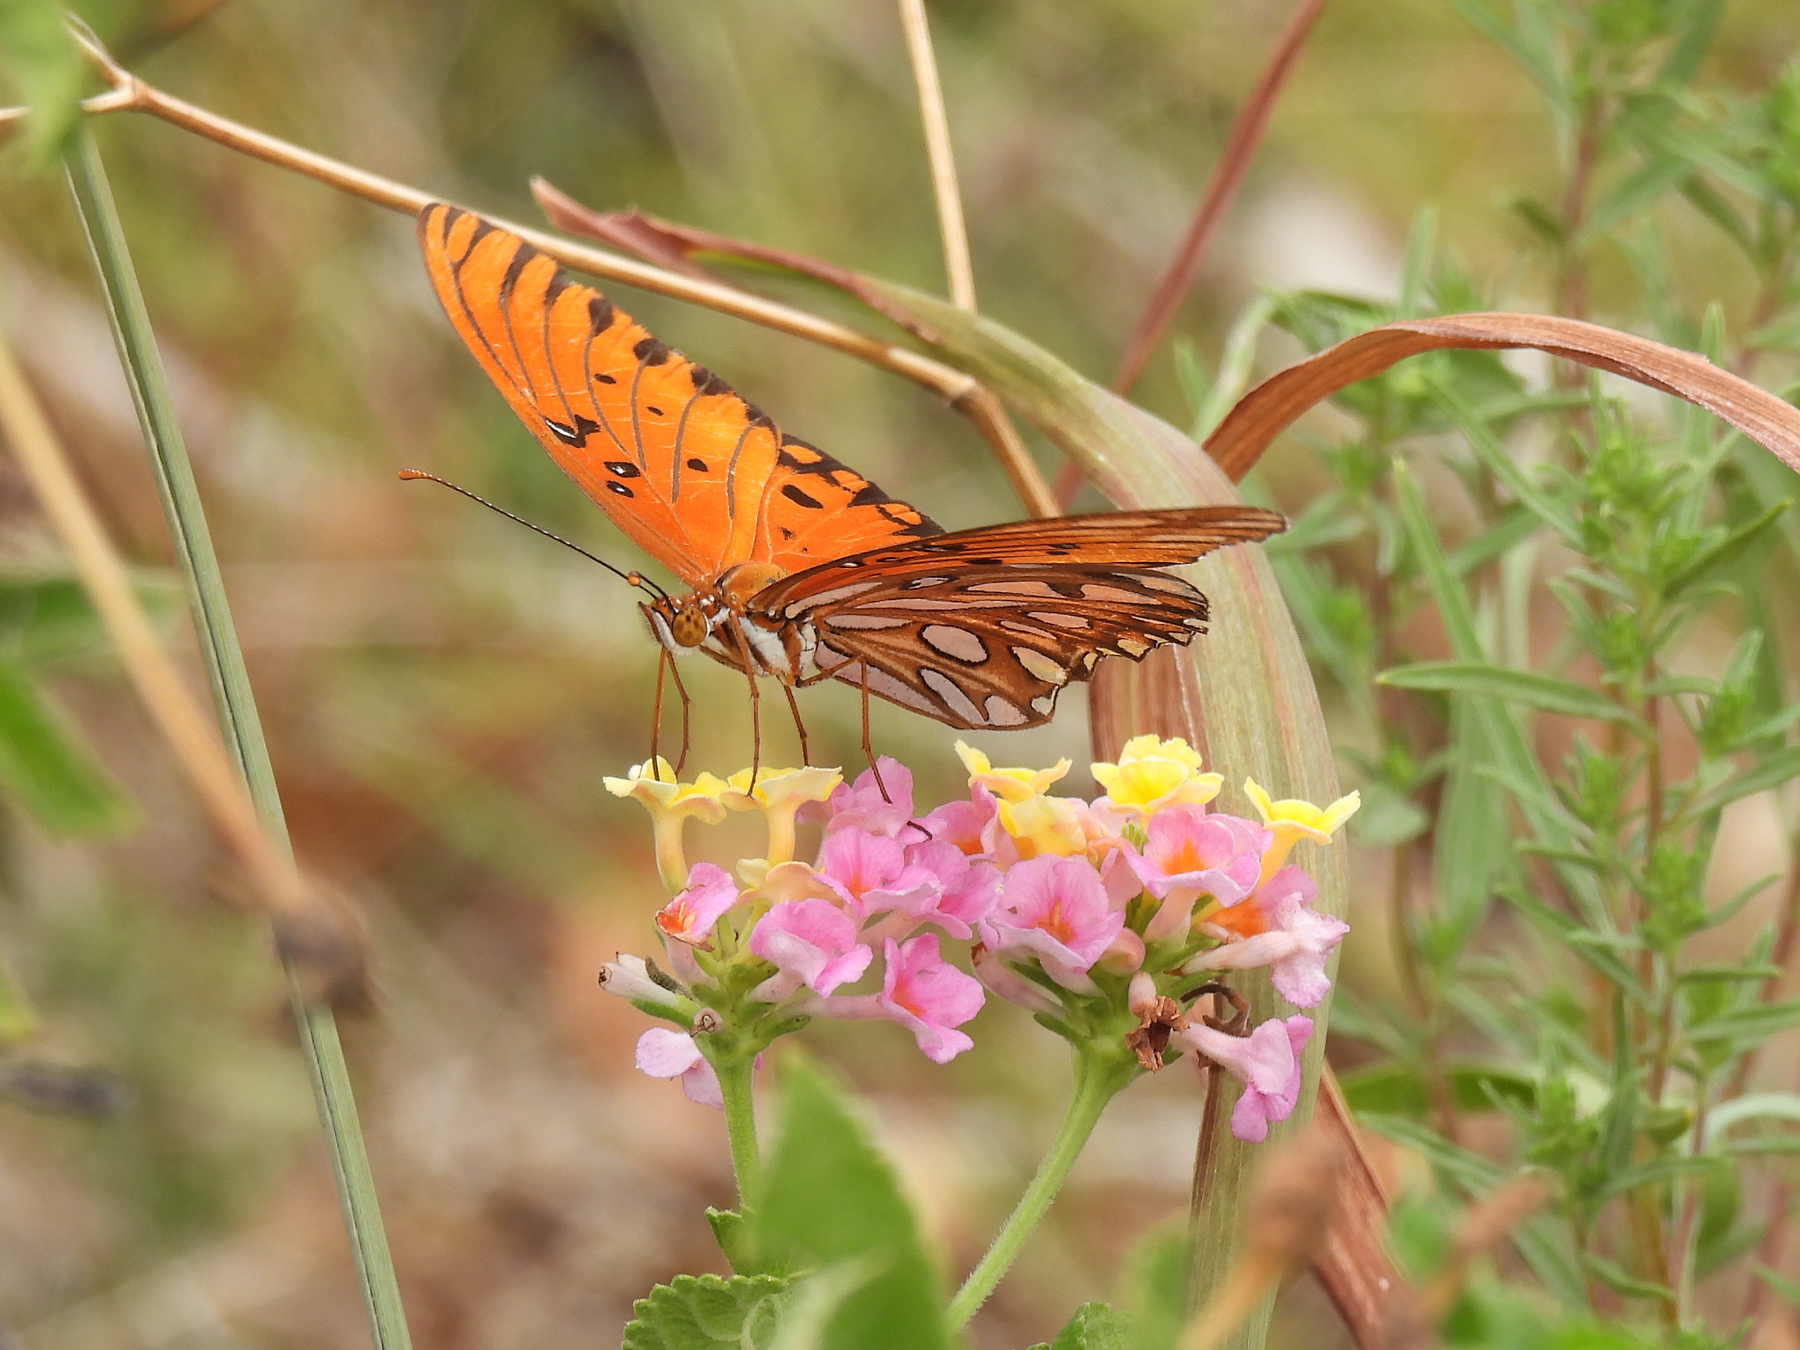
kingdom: Animalia
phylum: Arthropoda
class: Insecta
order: Lepidoptera
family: Nymphalidae
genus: Dione
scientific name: Dione vanillae
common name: Gulf fritillary
